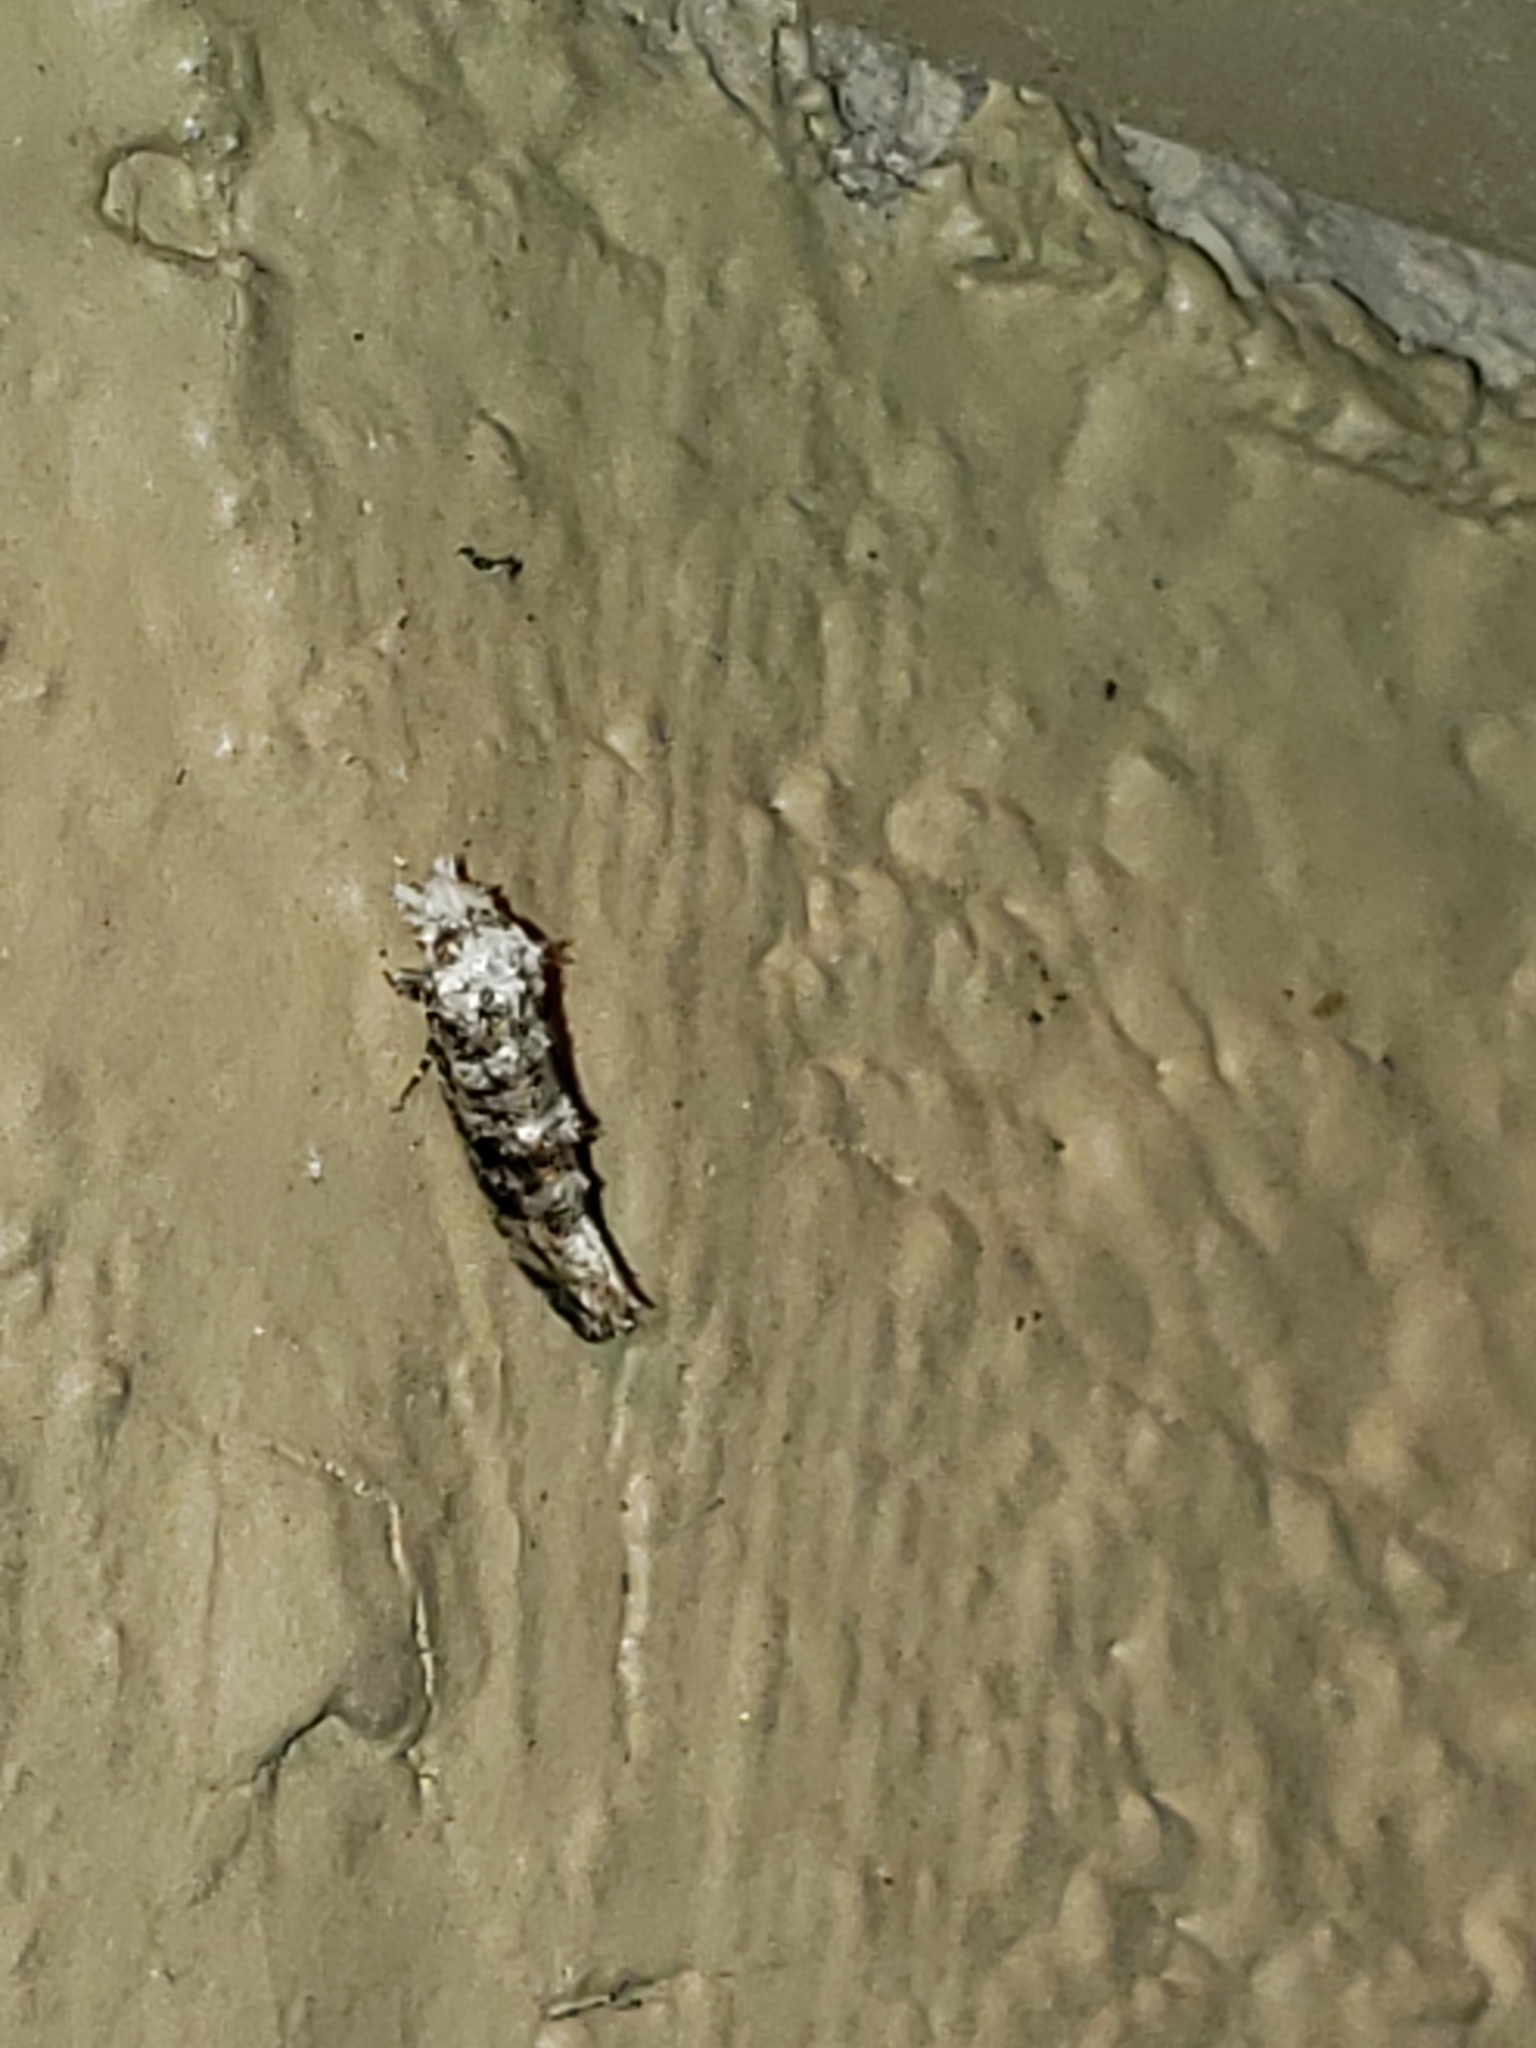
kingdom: Animalia
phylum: Arthropoda
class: Insecta
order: Lepidoptera
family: Tineidae
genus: Xylesthia
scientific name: Xylesthia pruniramiella
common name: Clemens' bark moth
